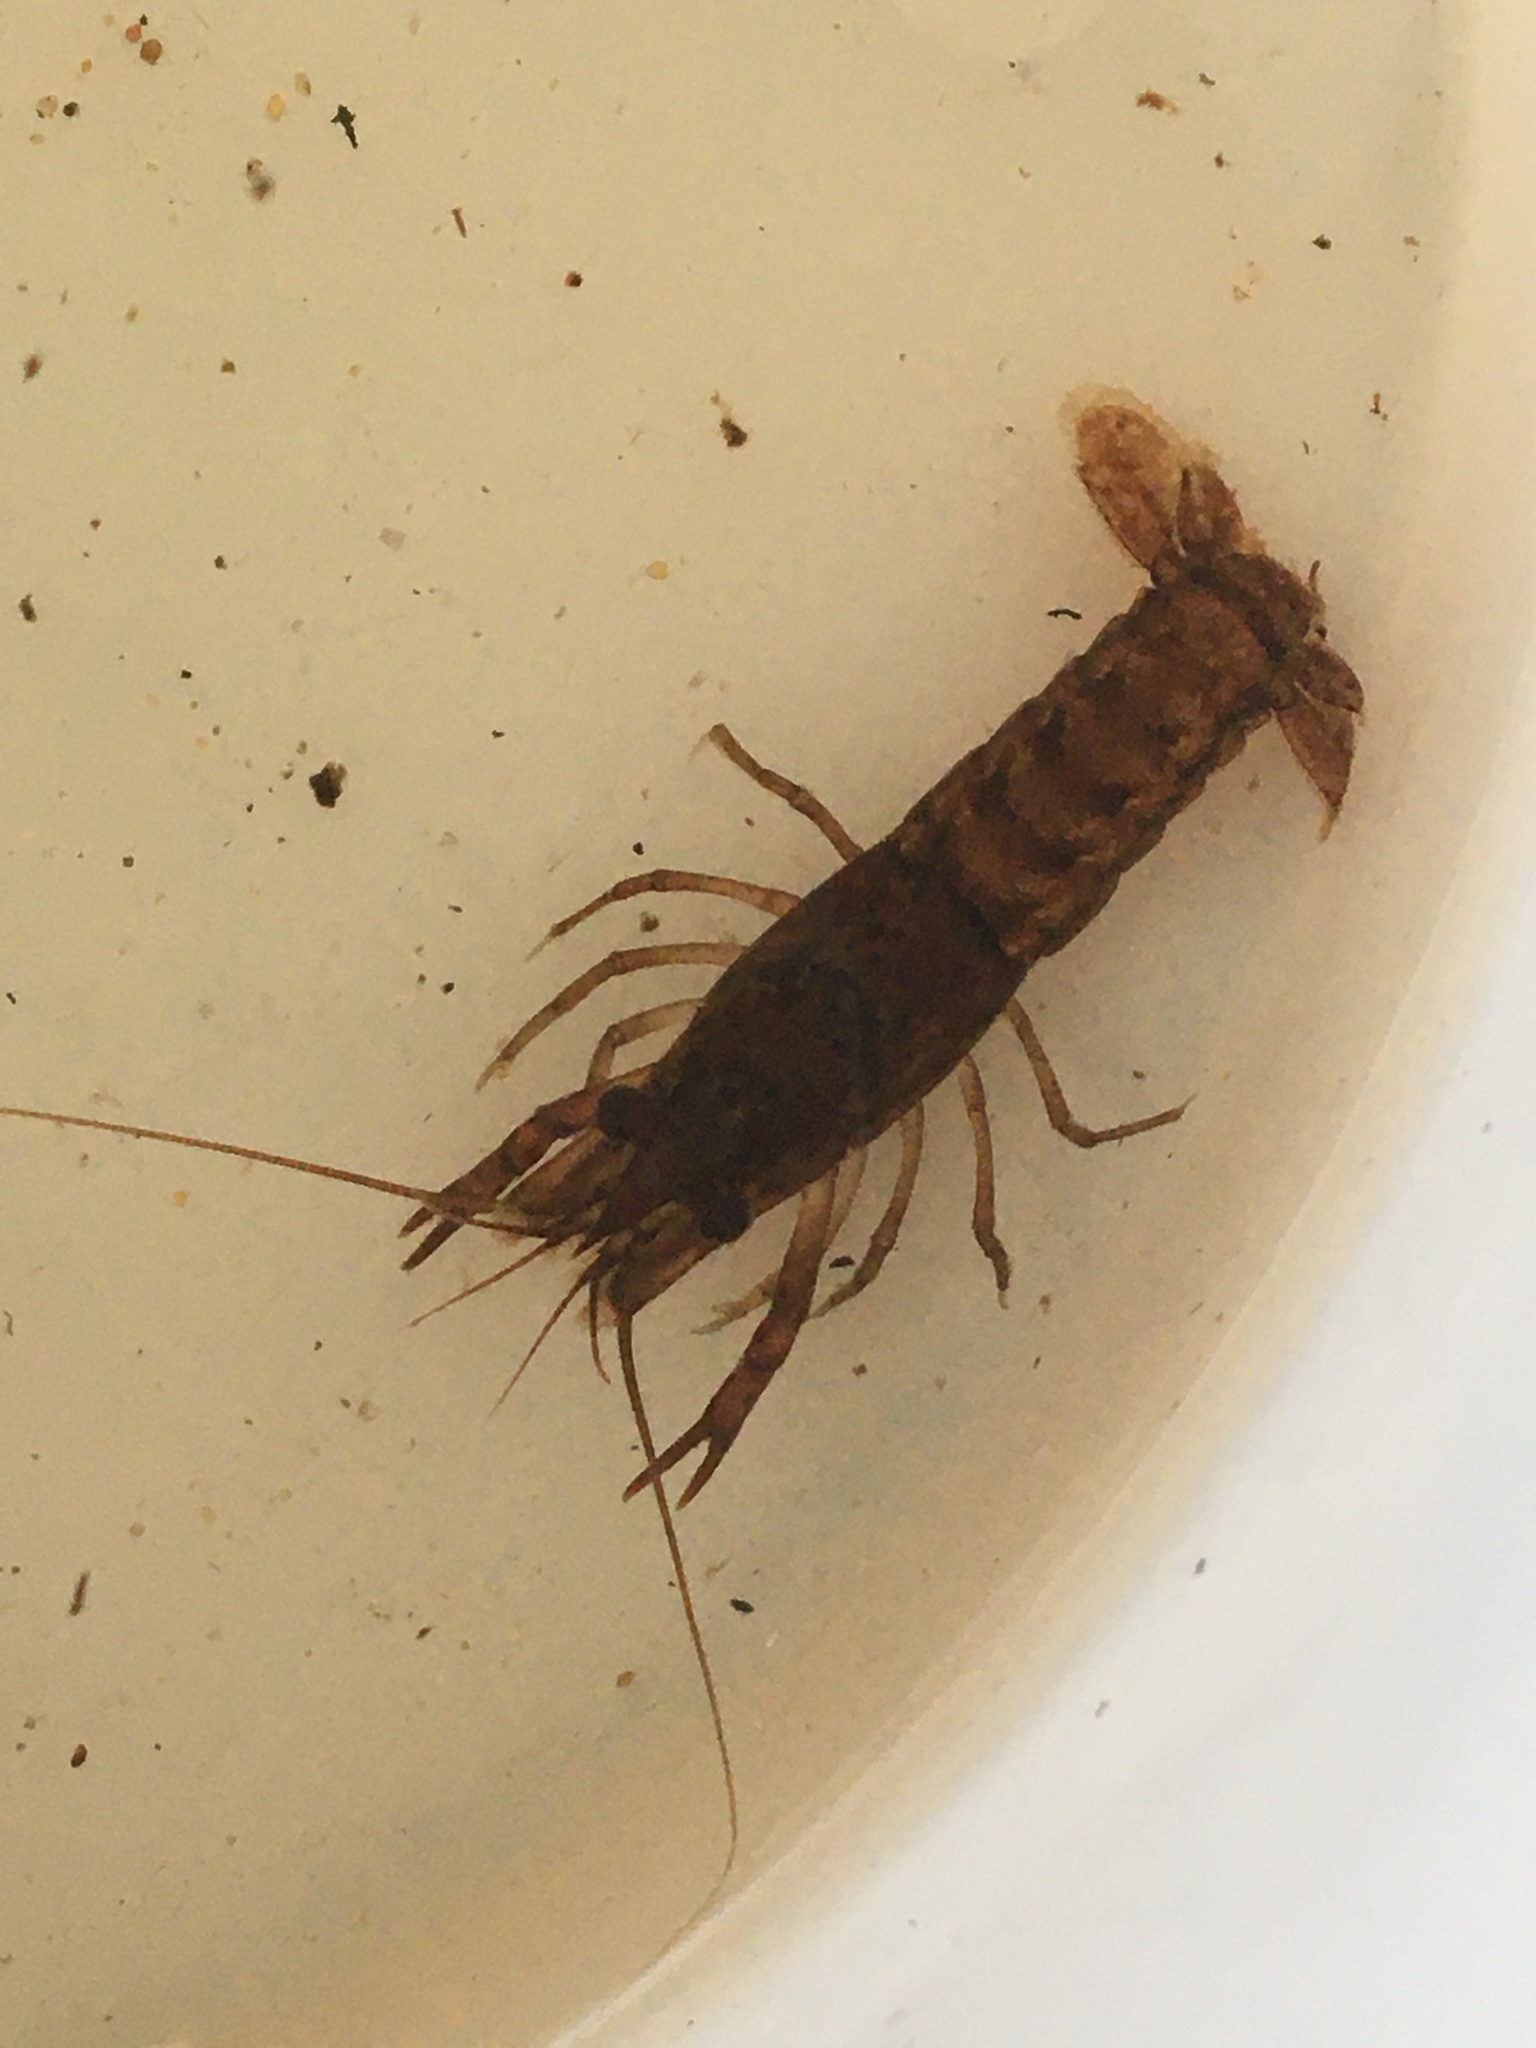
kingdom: Animalia
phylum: Arthropoda
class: Malacostraca
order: Decapoda
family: Cambaridae
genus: Procambarus
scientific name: Procambarus acutus
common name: White river crayfish
